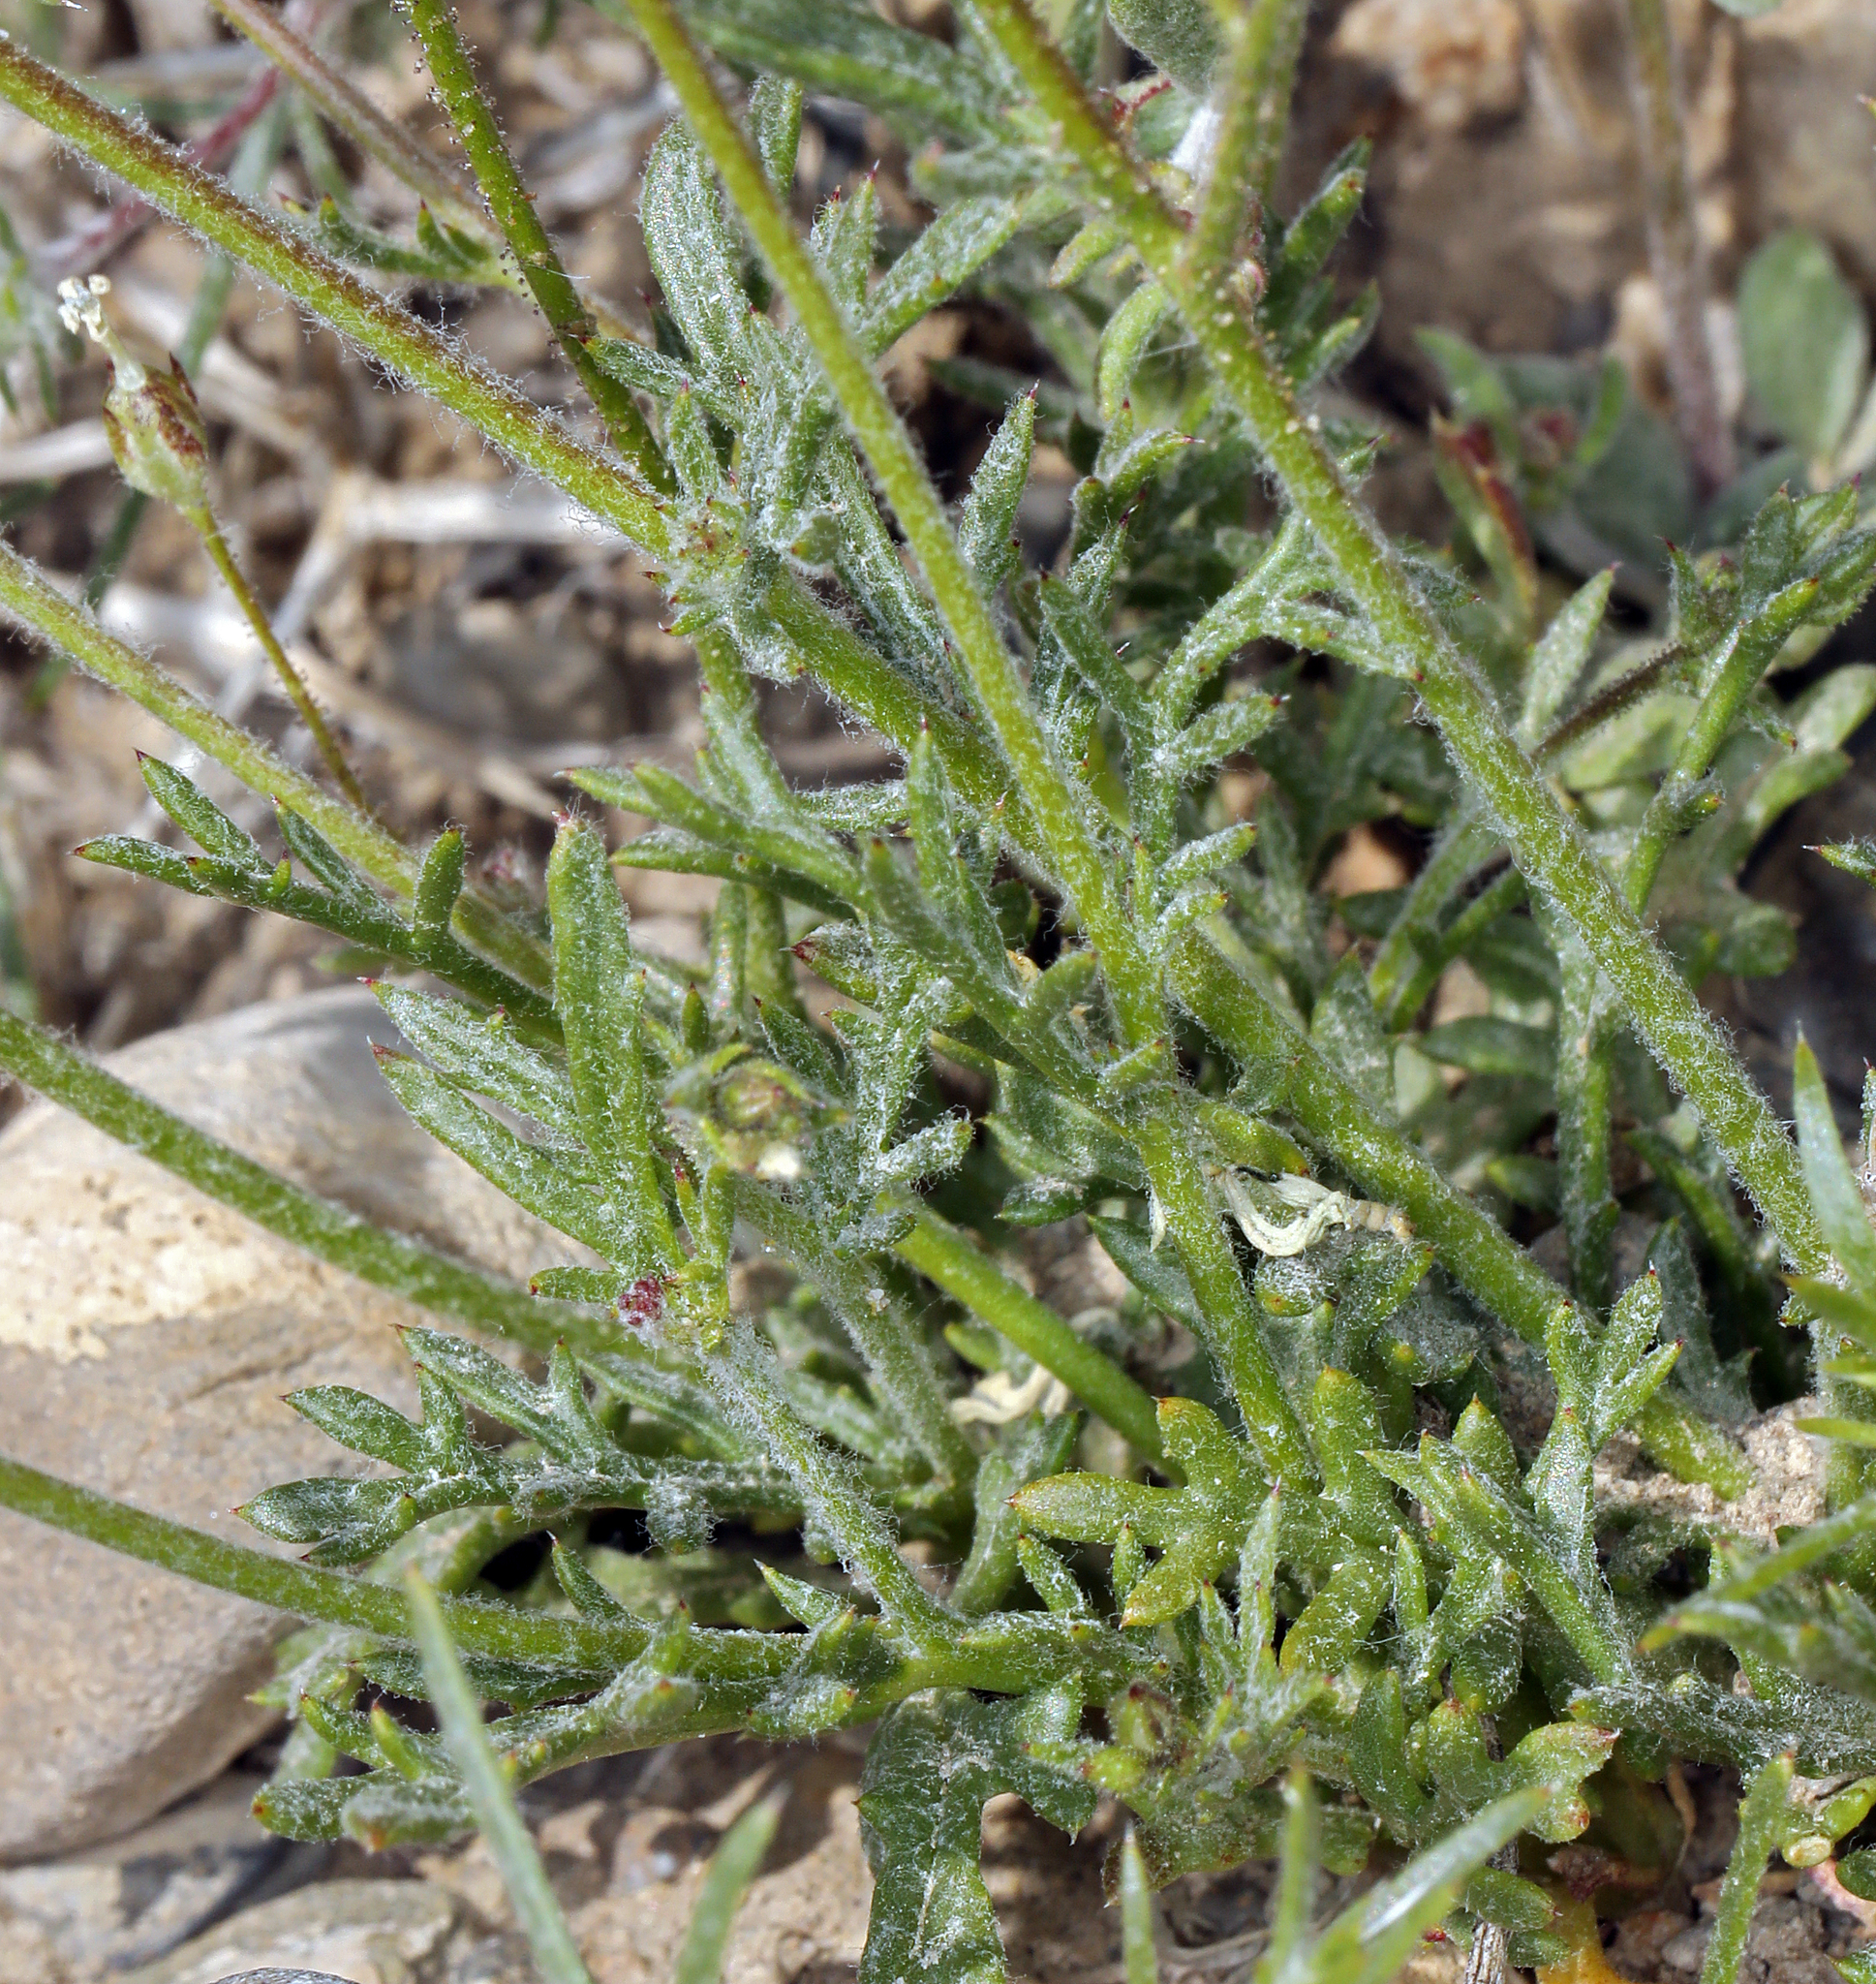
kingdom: Plantae
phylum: Tracheophyta
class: Magnoliopsida
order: Ericales
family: Polemoniaceae
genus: Gilia
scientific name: Gilia clokeyi
